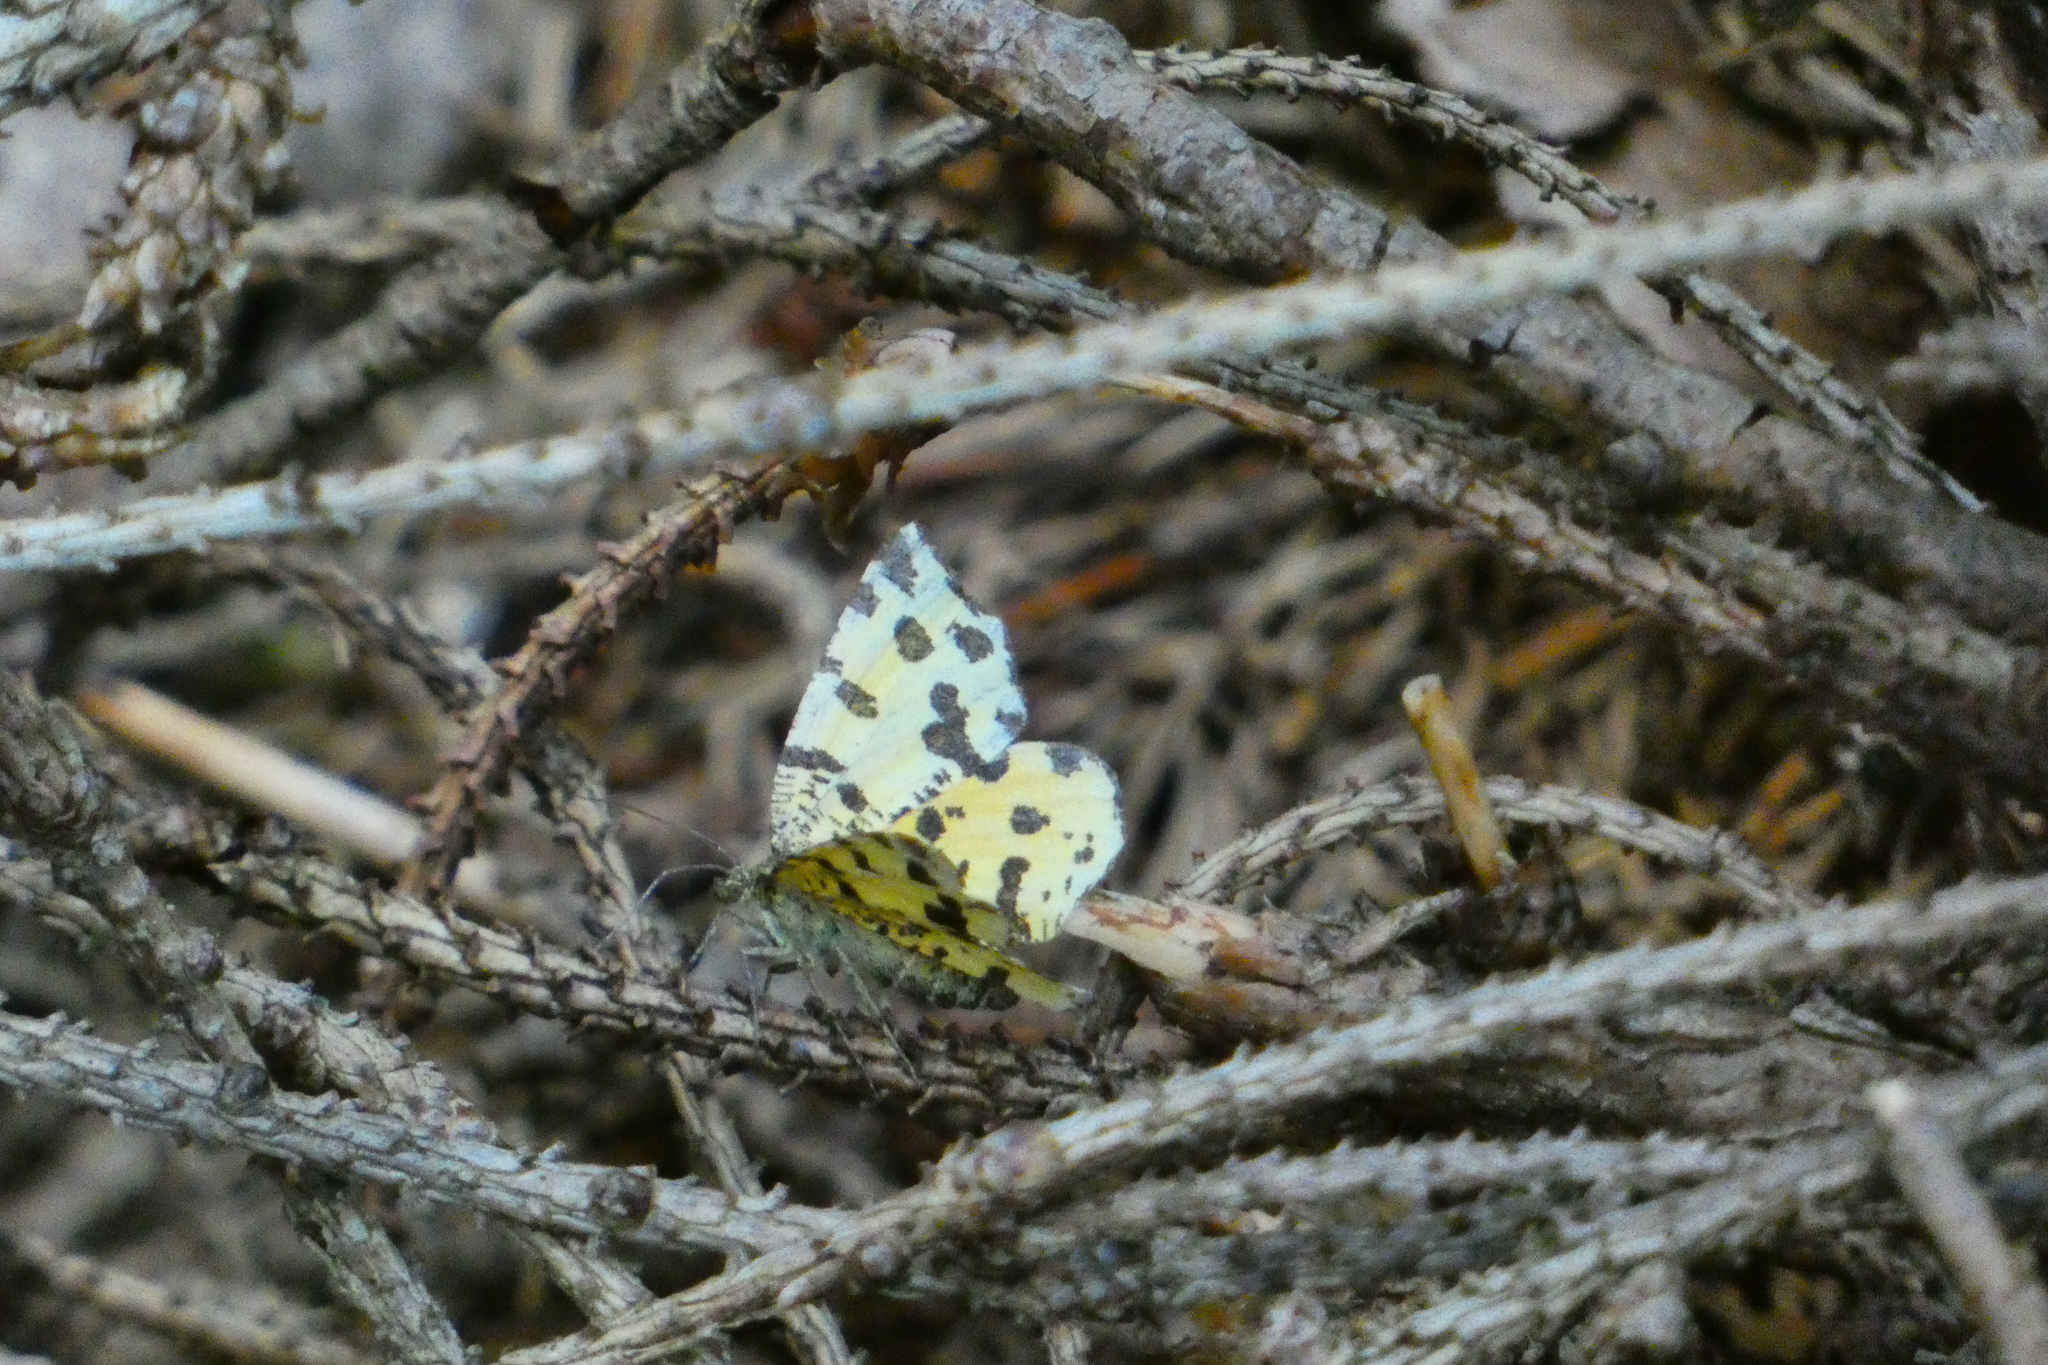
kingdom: Animalia
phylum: Arthropoda
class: Insecta
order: Lepidoptera
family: Geometridae
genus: Pseudopanthera
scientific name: Pseudopanthera macularia
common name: Speckled yellow
